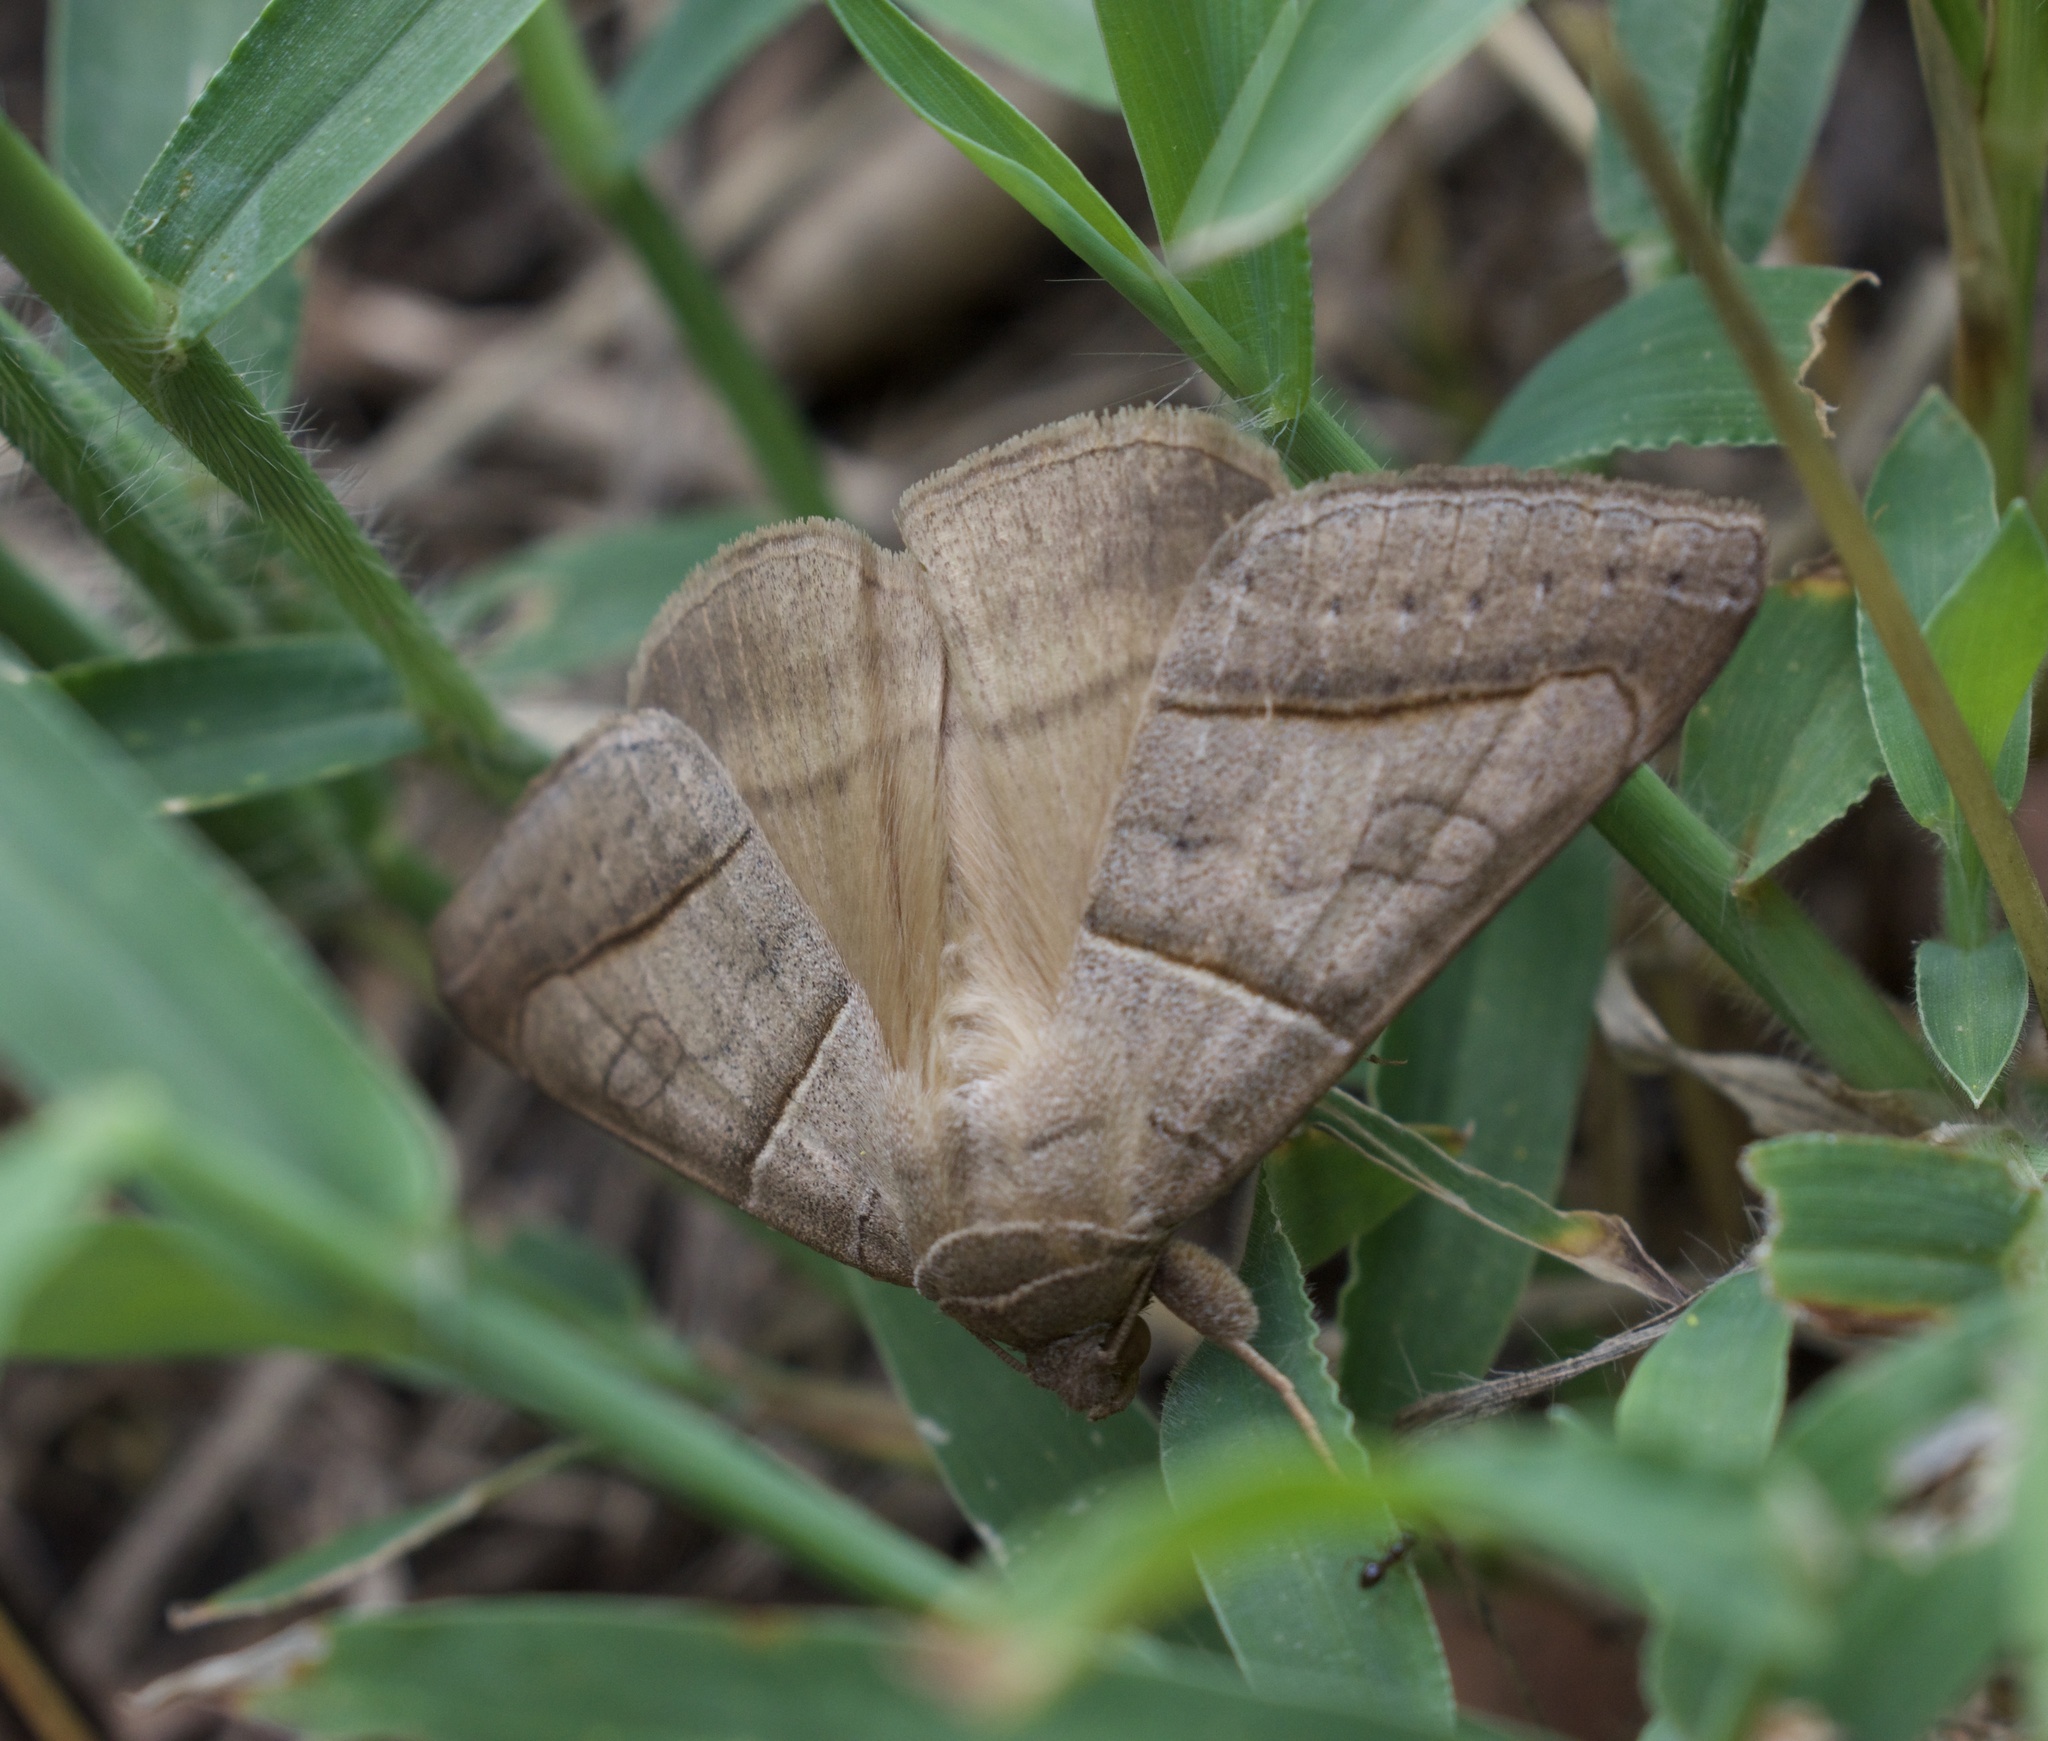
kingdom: Animalia
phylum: Arthropoda
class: Insecta
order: Lepidoptera
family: Erebidae
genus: Mocis
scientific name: Mocis texana
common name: Texas mocis moth
